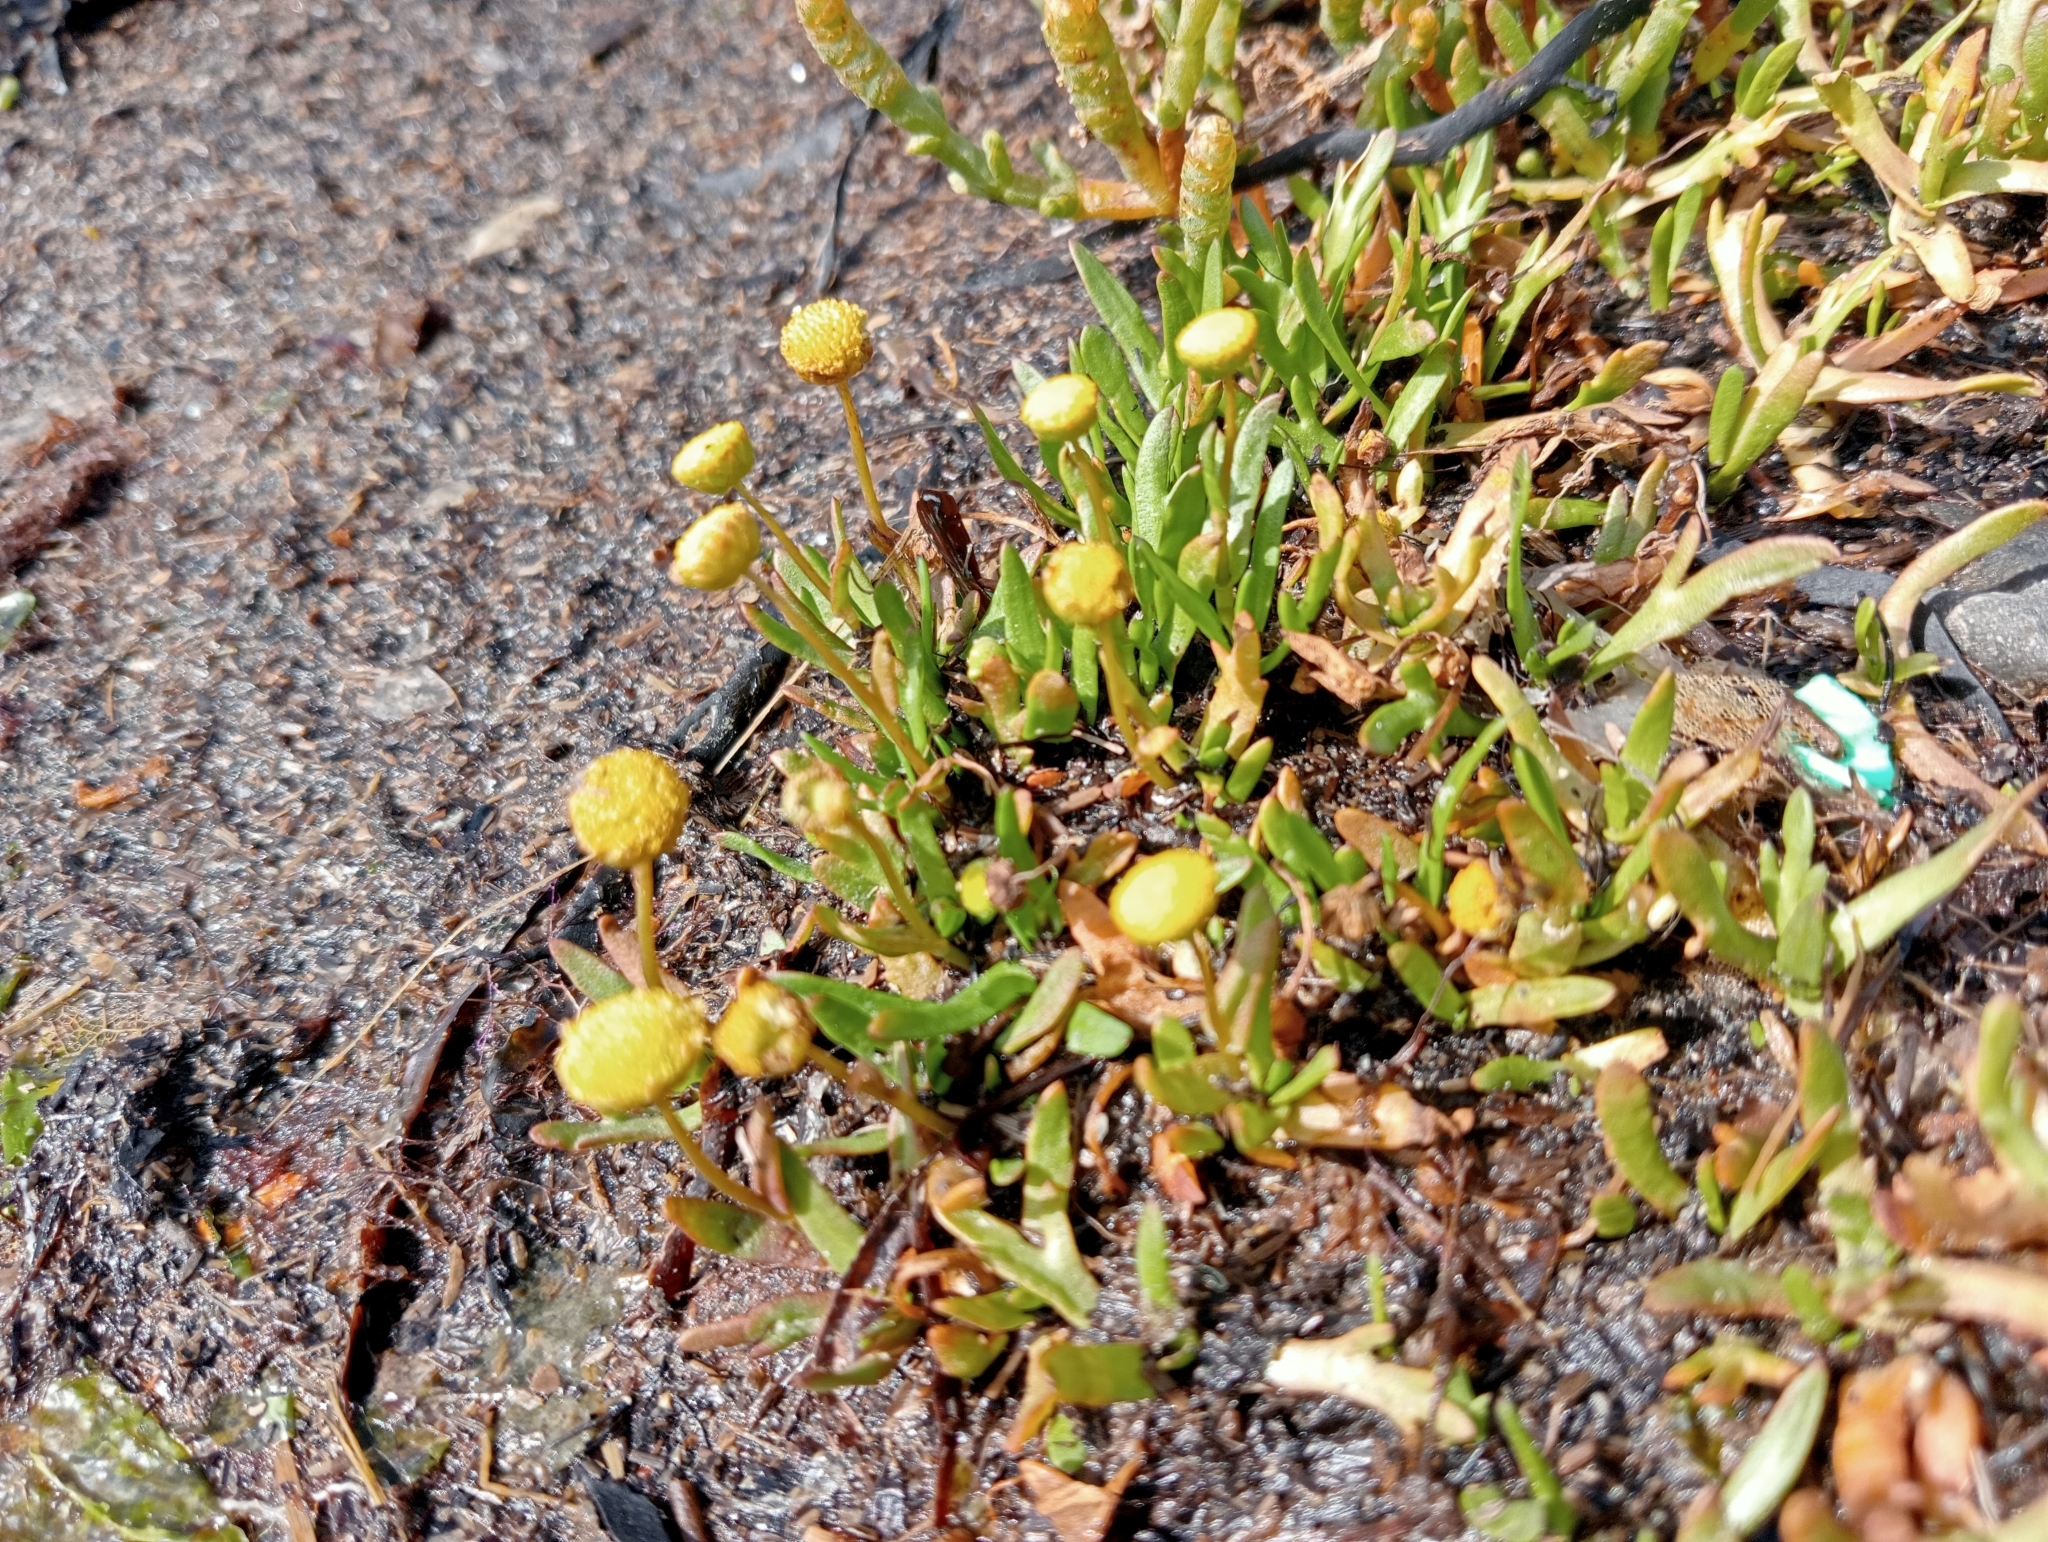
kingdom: Plantae
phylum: Tracheophyta
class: Magnoliopsida
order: Asterales
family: Asteraceae
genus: Cotula
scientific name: Cotula coronopifolia
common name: Buttonweed
